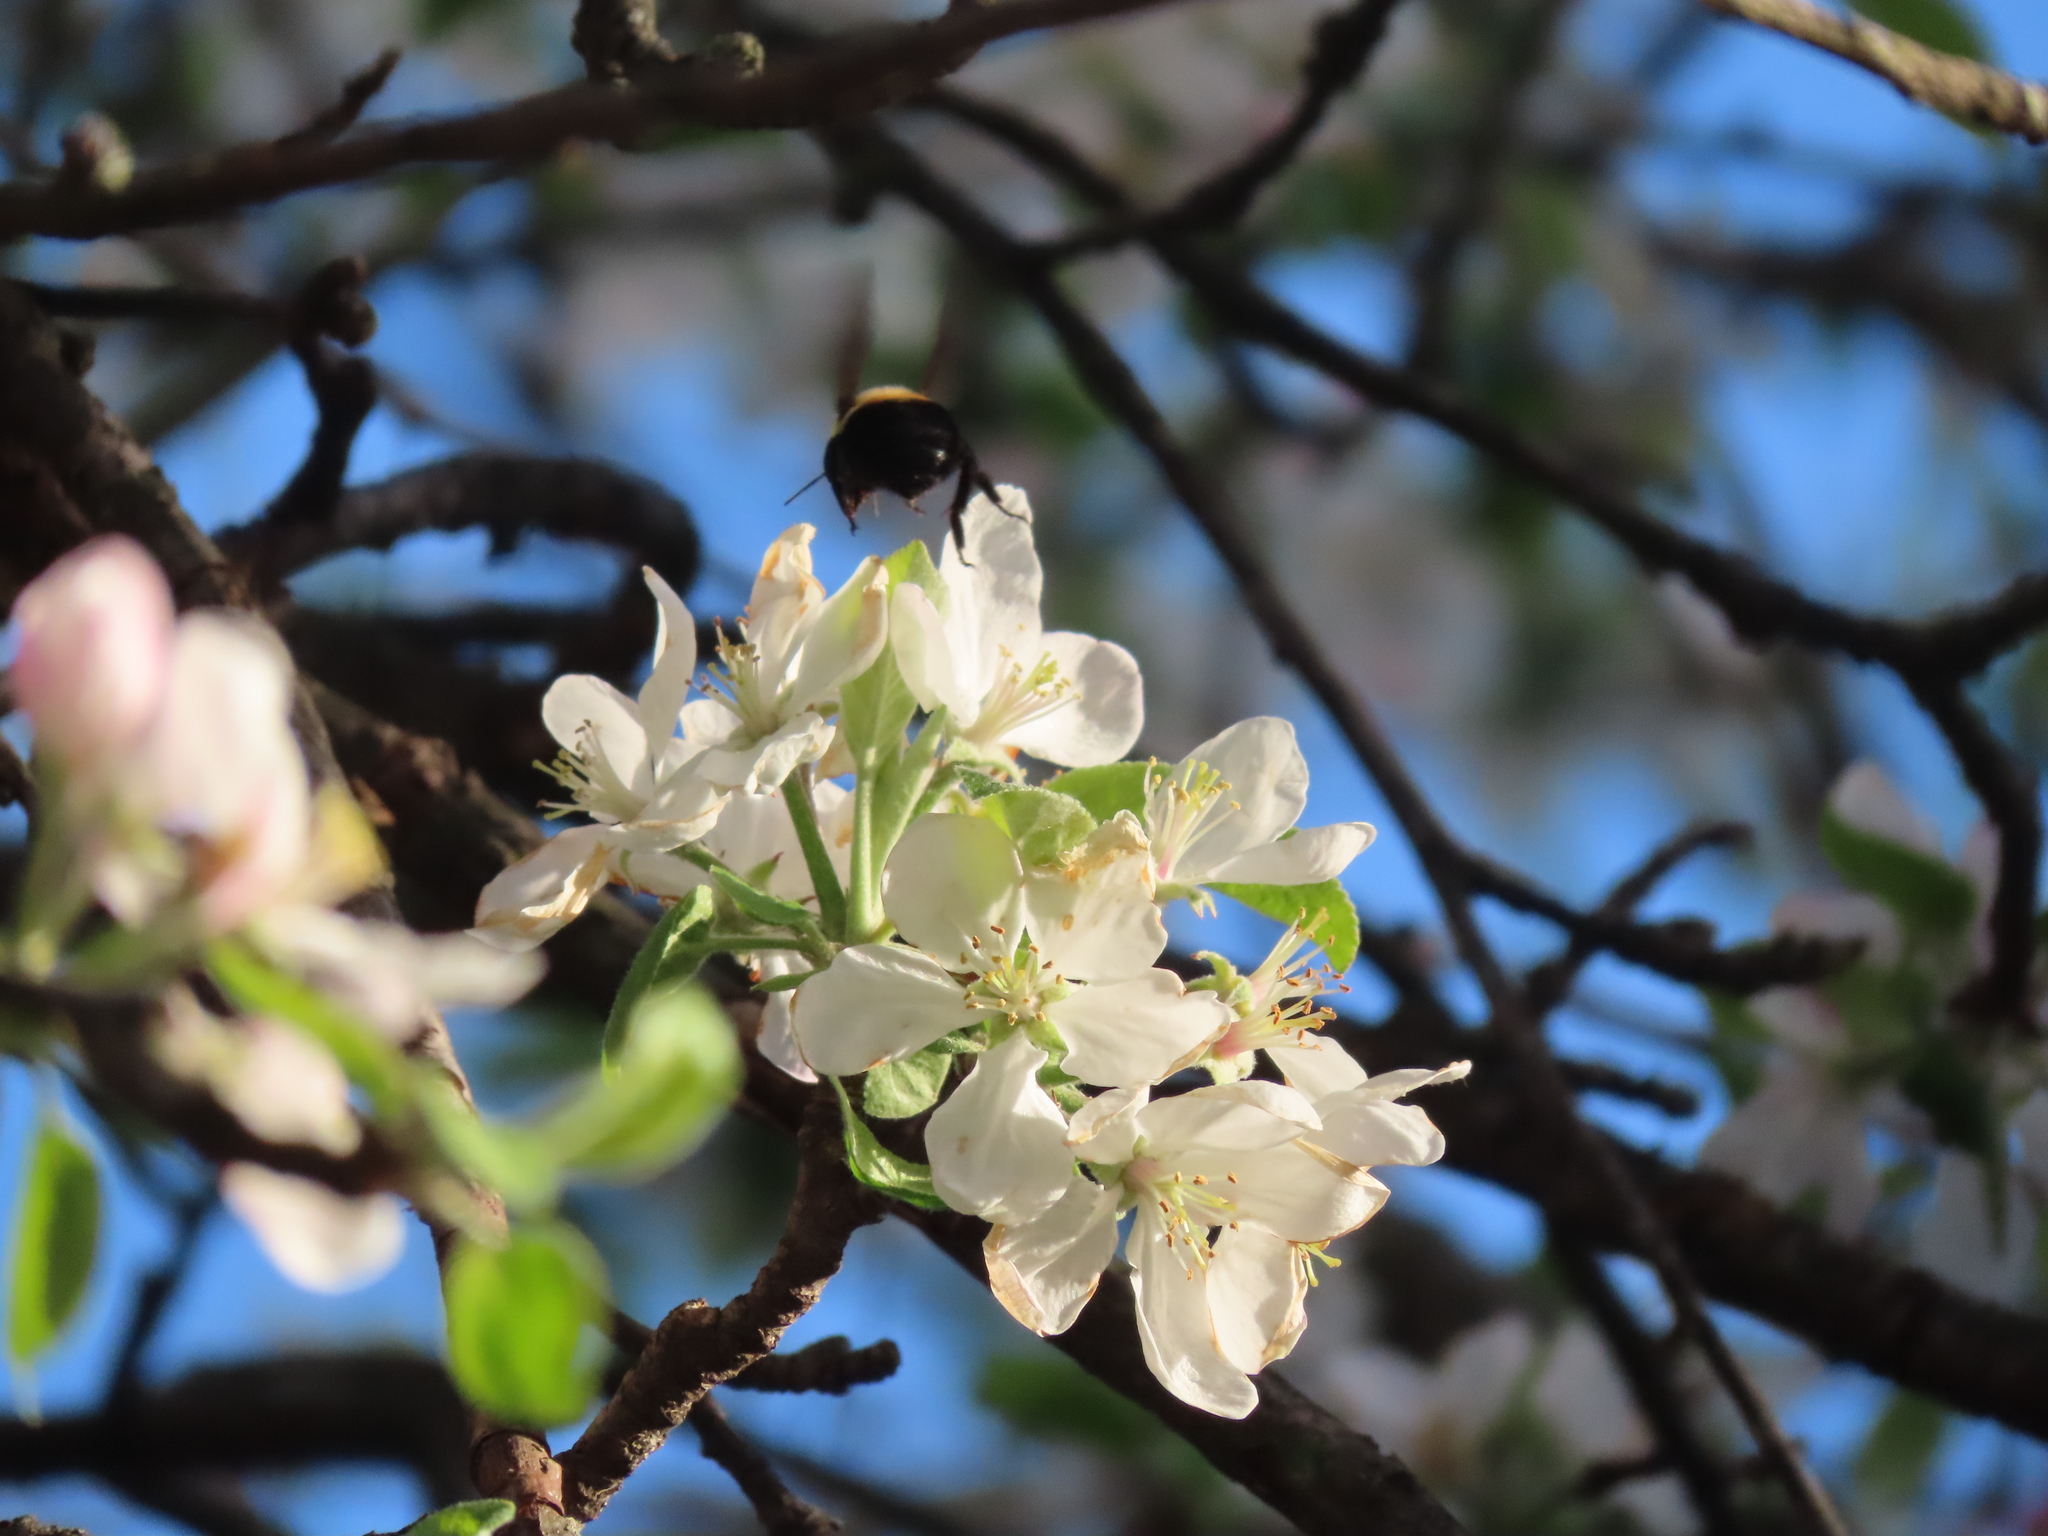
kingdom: Animalia
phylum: Arthropoda
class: Insecta
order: Hymenoptera
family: Apidae
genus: Bombus
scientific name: Bombus impatiens
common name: Common eastern bumble bee
